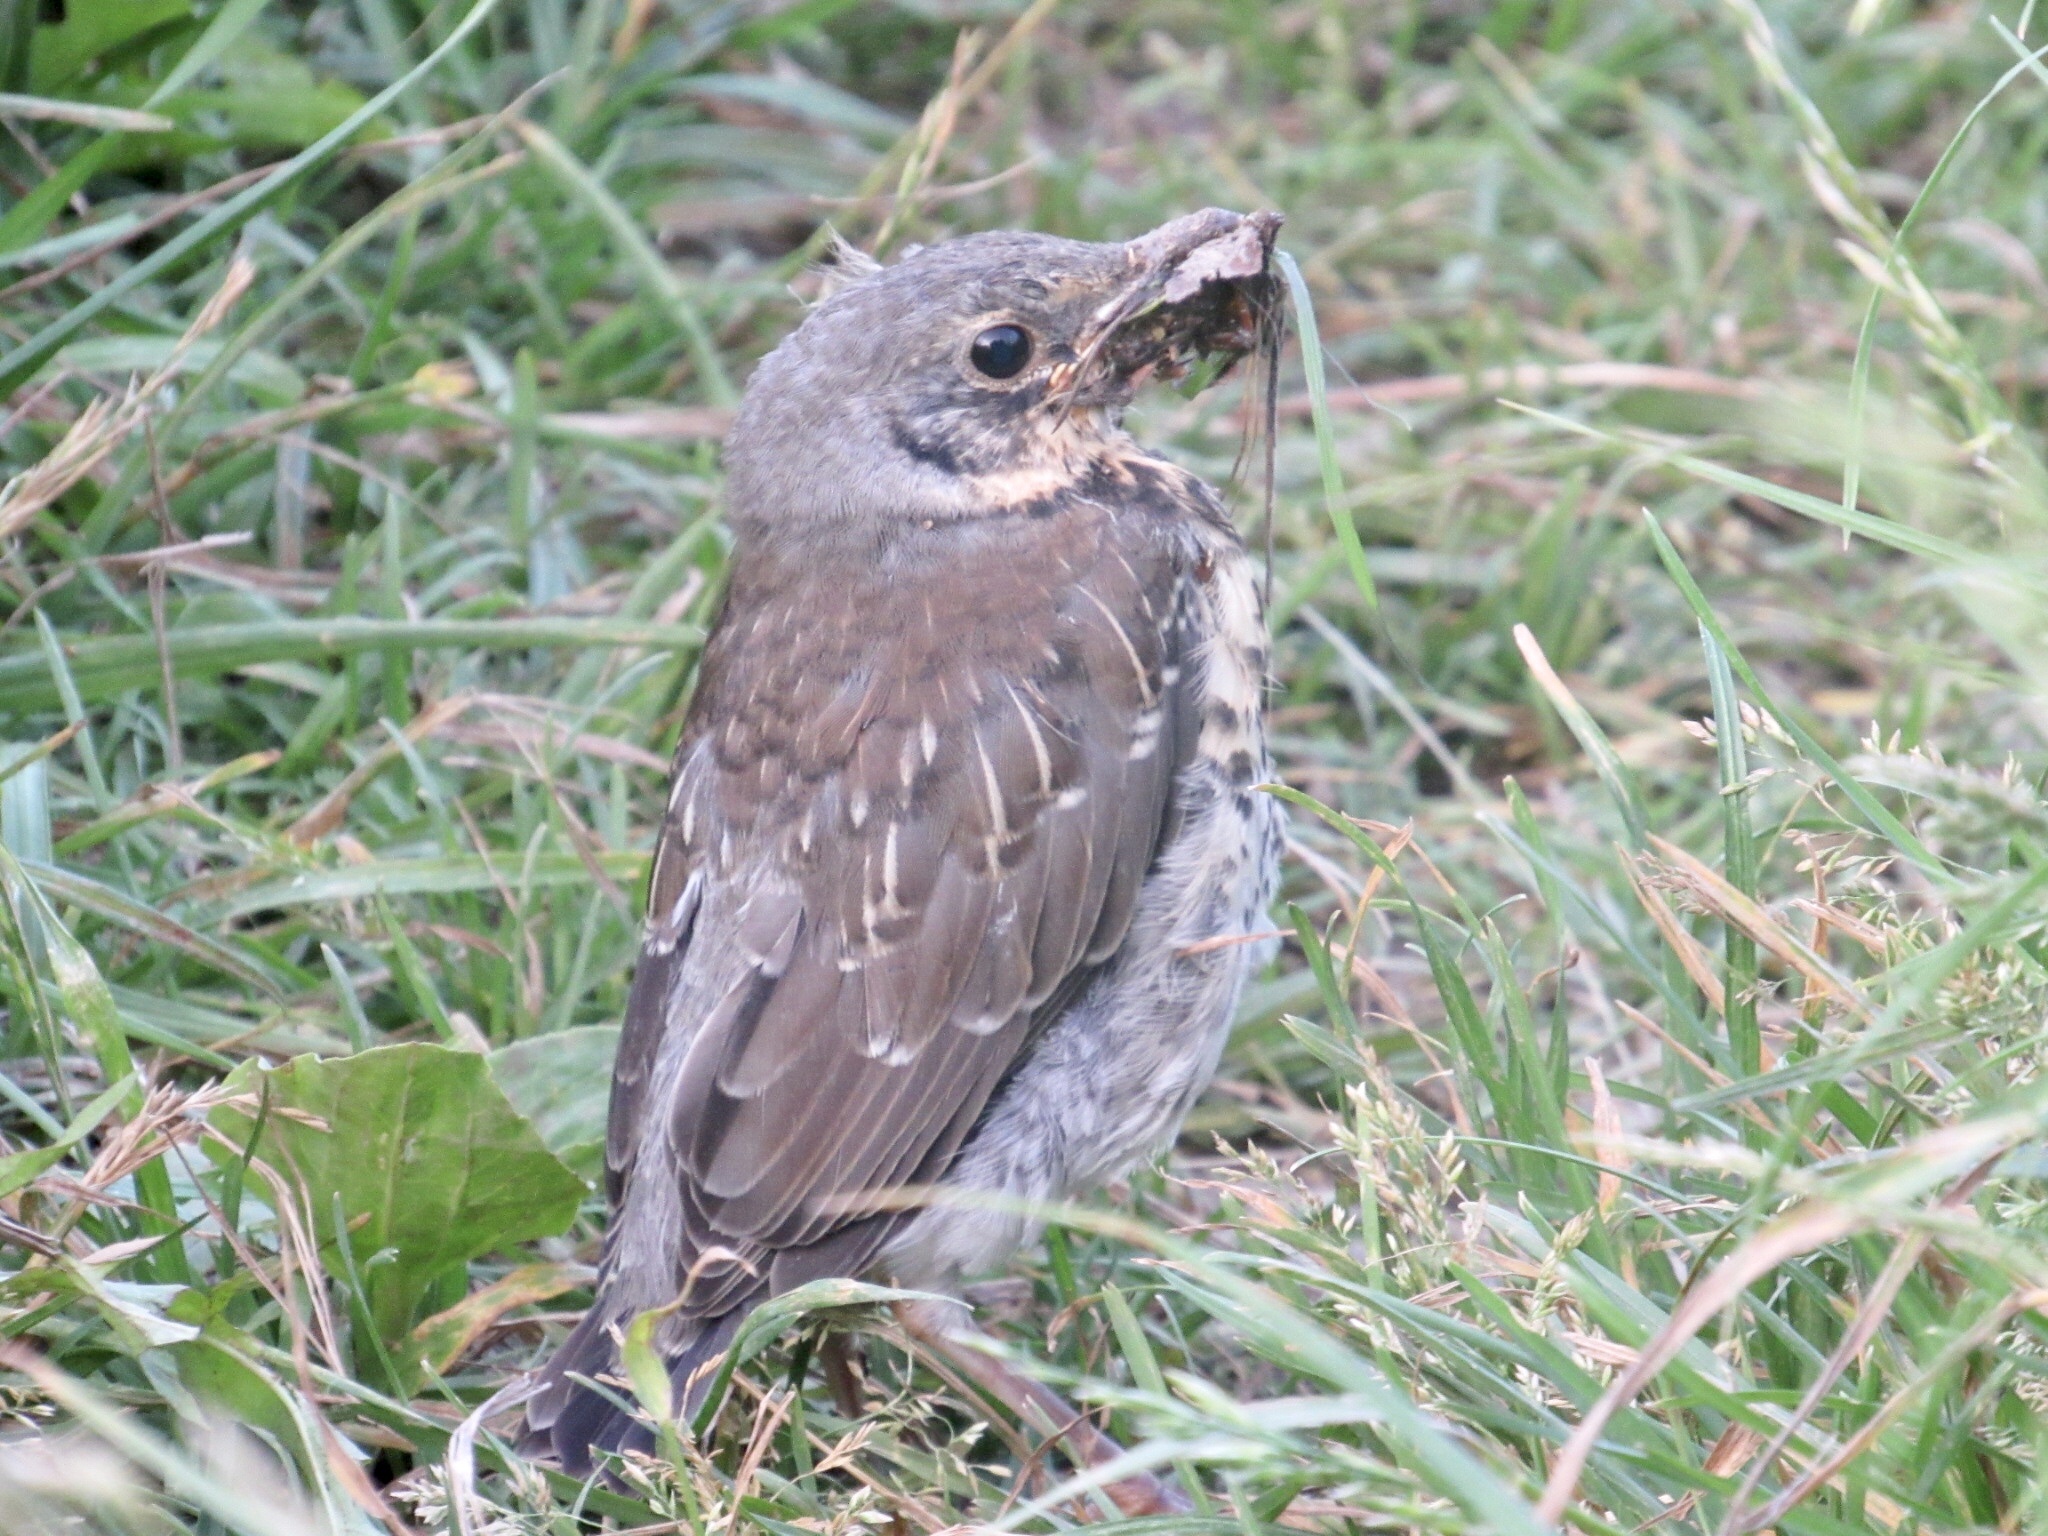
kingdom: Animalia
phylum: Chordata
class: Aves
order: Passeriformes
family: Turdidae
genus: Turdus
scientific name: Turdus pilaris
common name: Fieldfare
